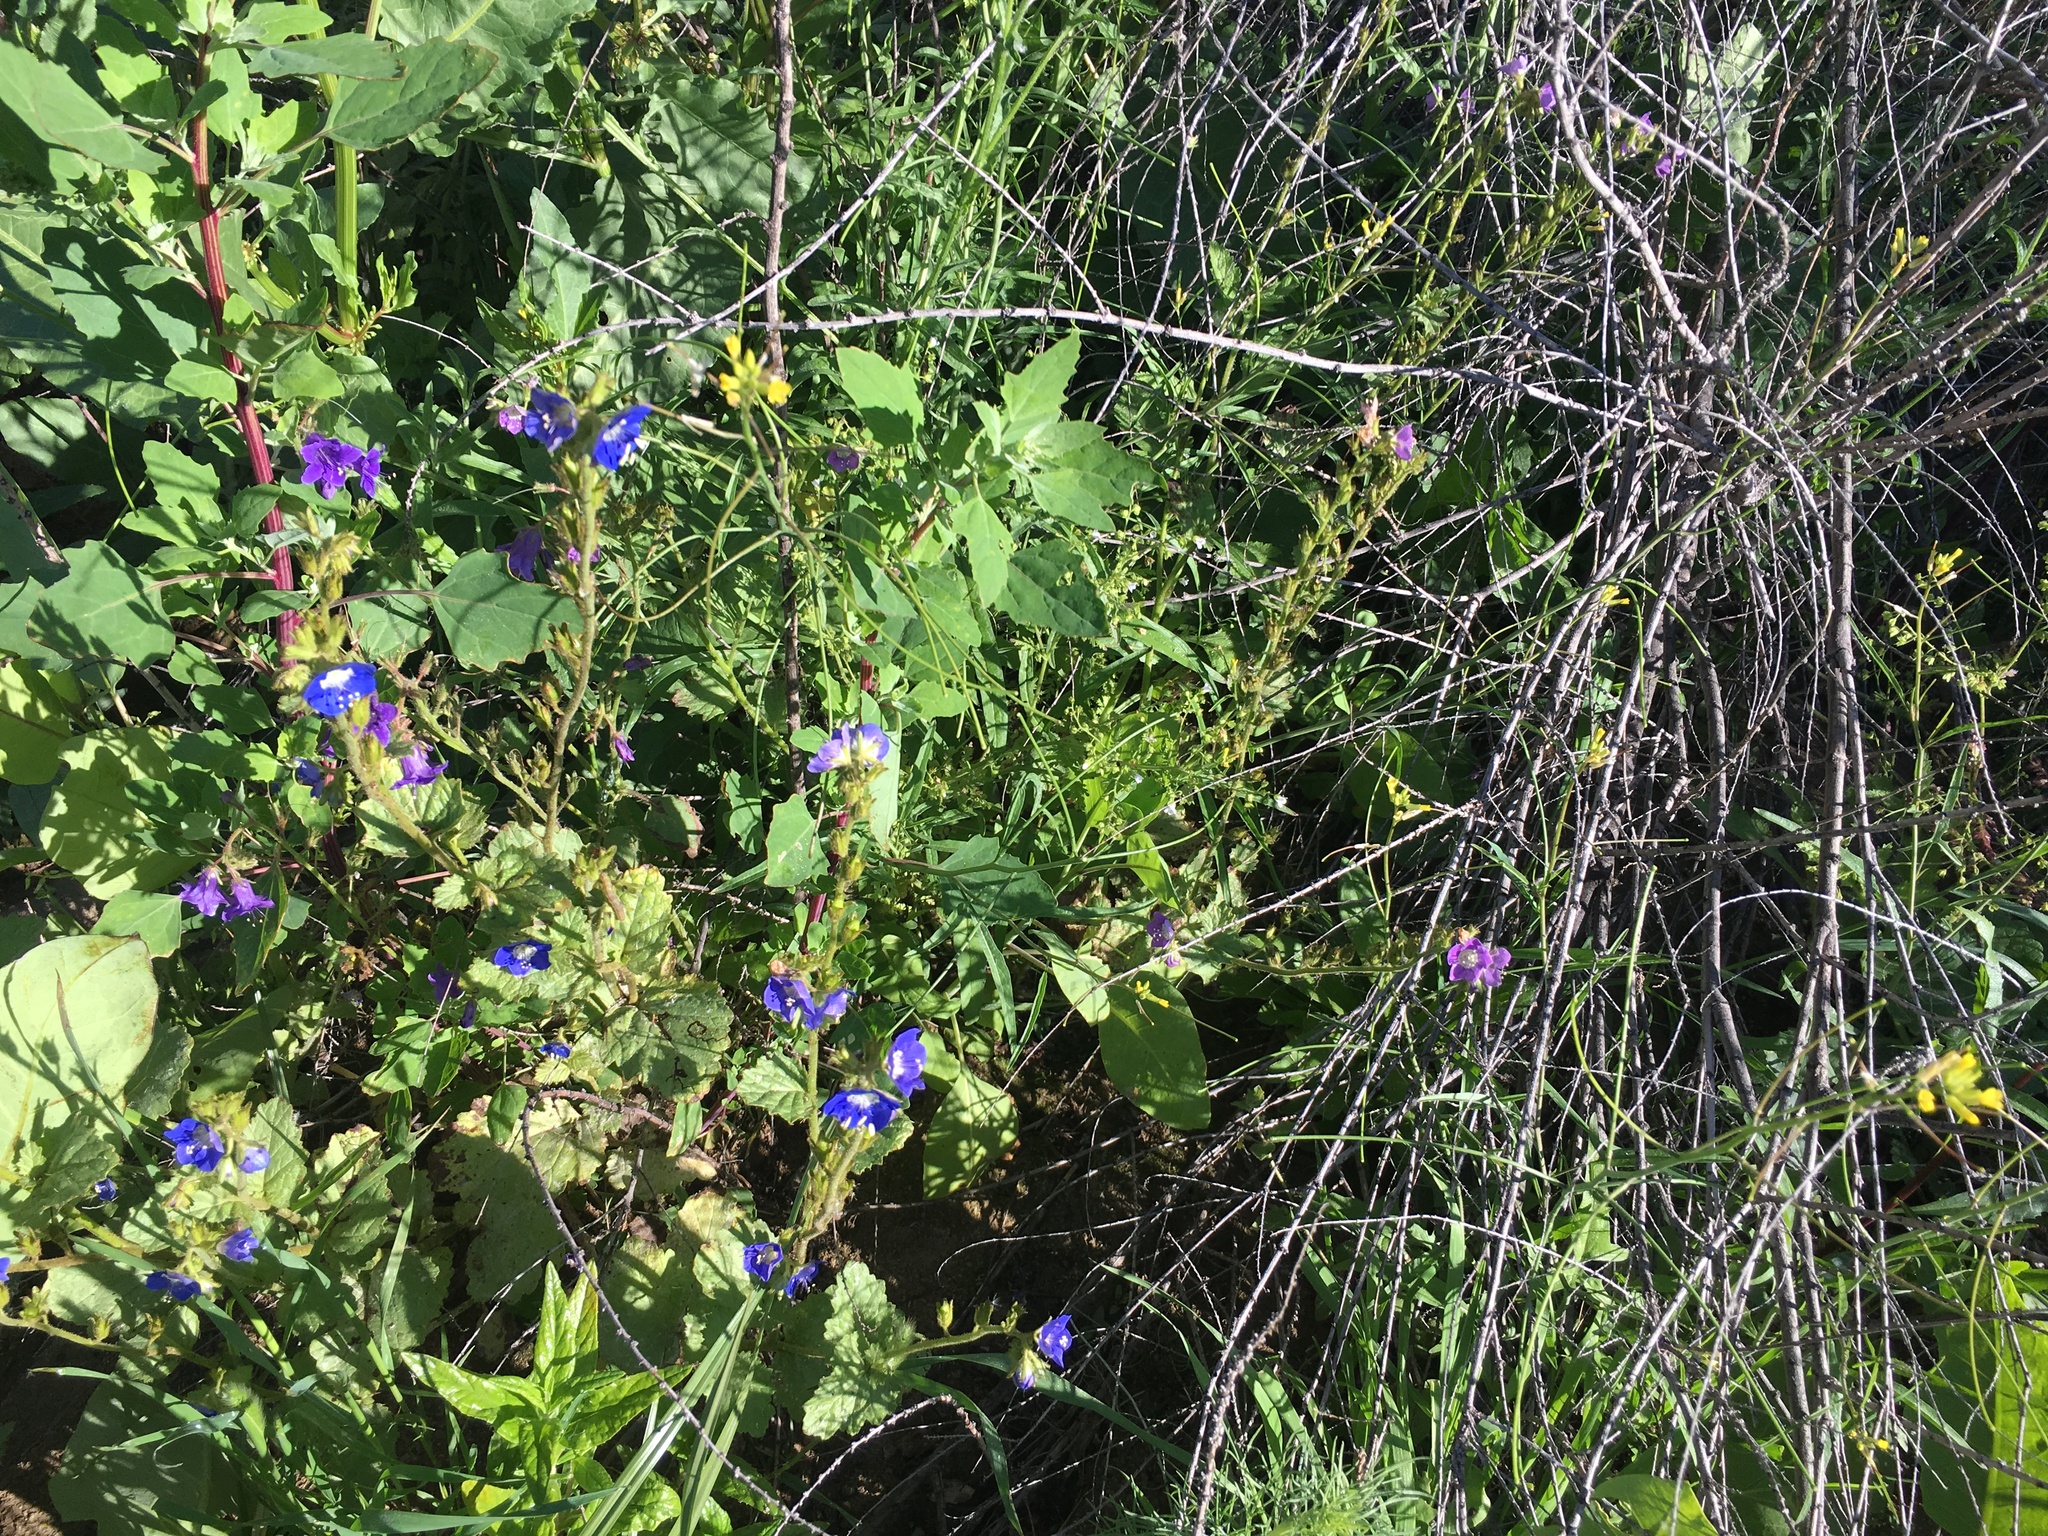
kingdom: Plantae
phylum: Tracheophyta
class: Magnoliopsida
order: Boraginales
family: Hydrophyllaceae
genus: Phacelia
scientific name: Phacelia viscida
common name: Sticky phacelia
